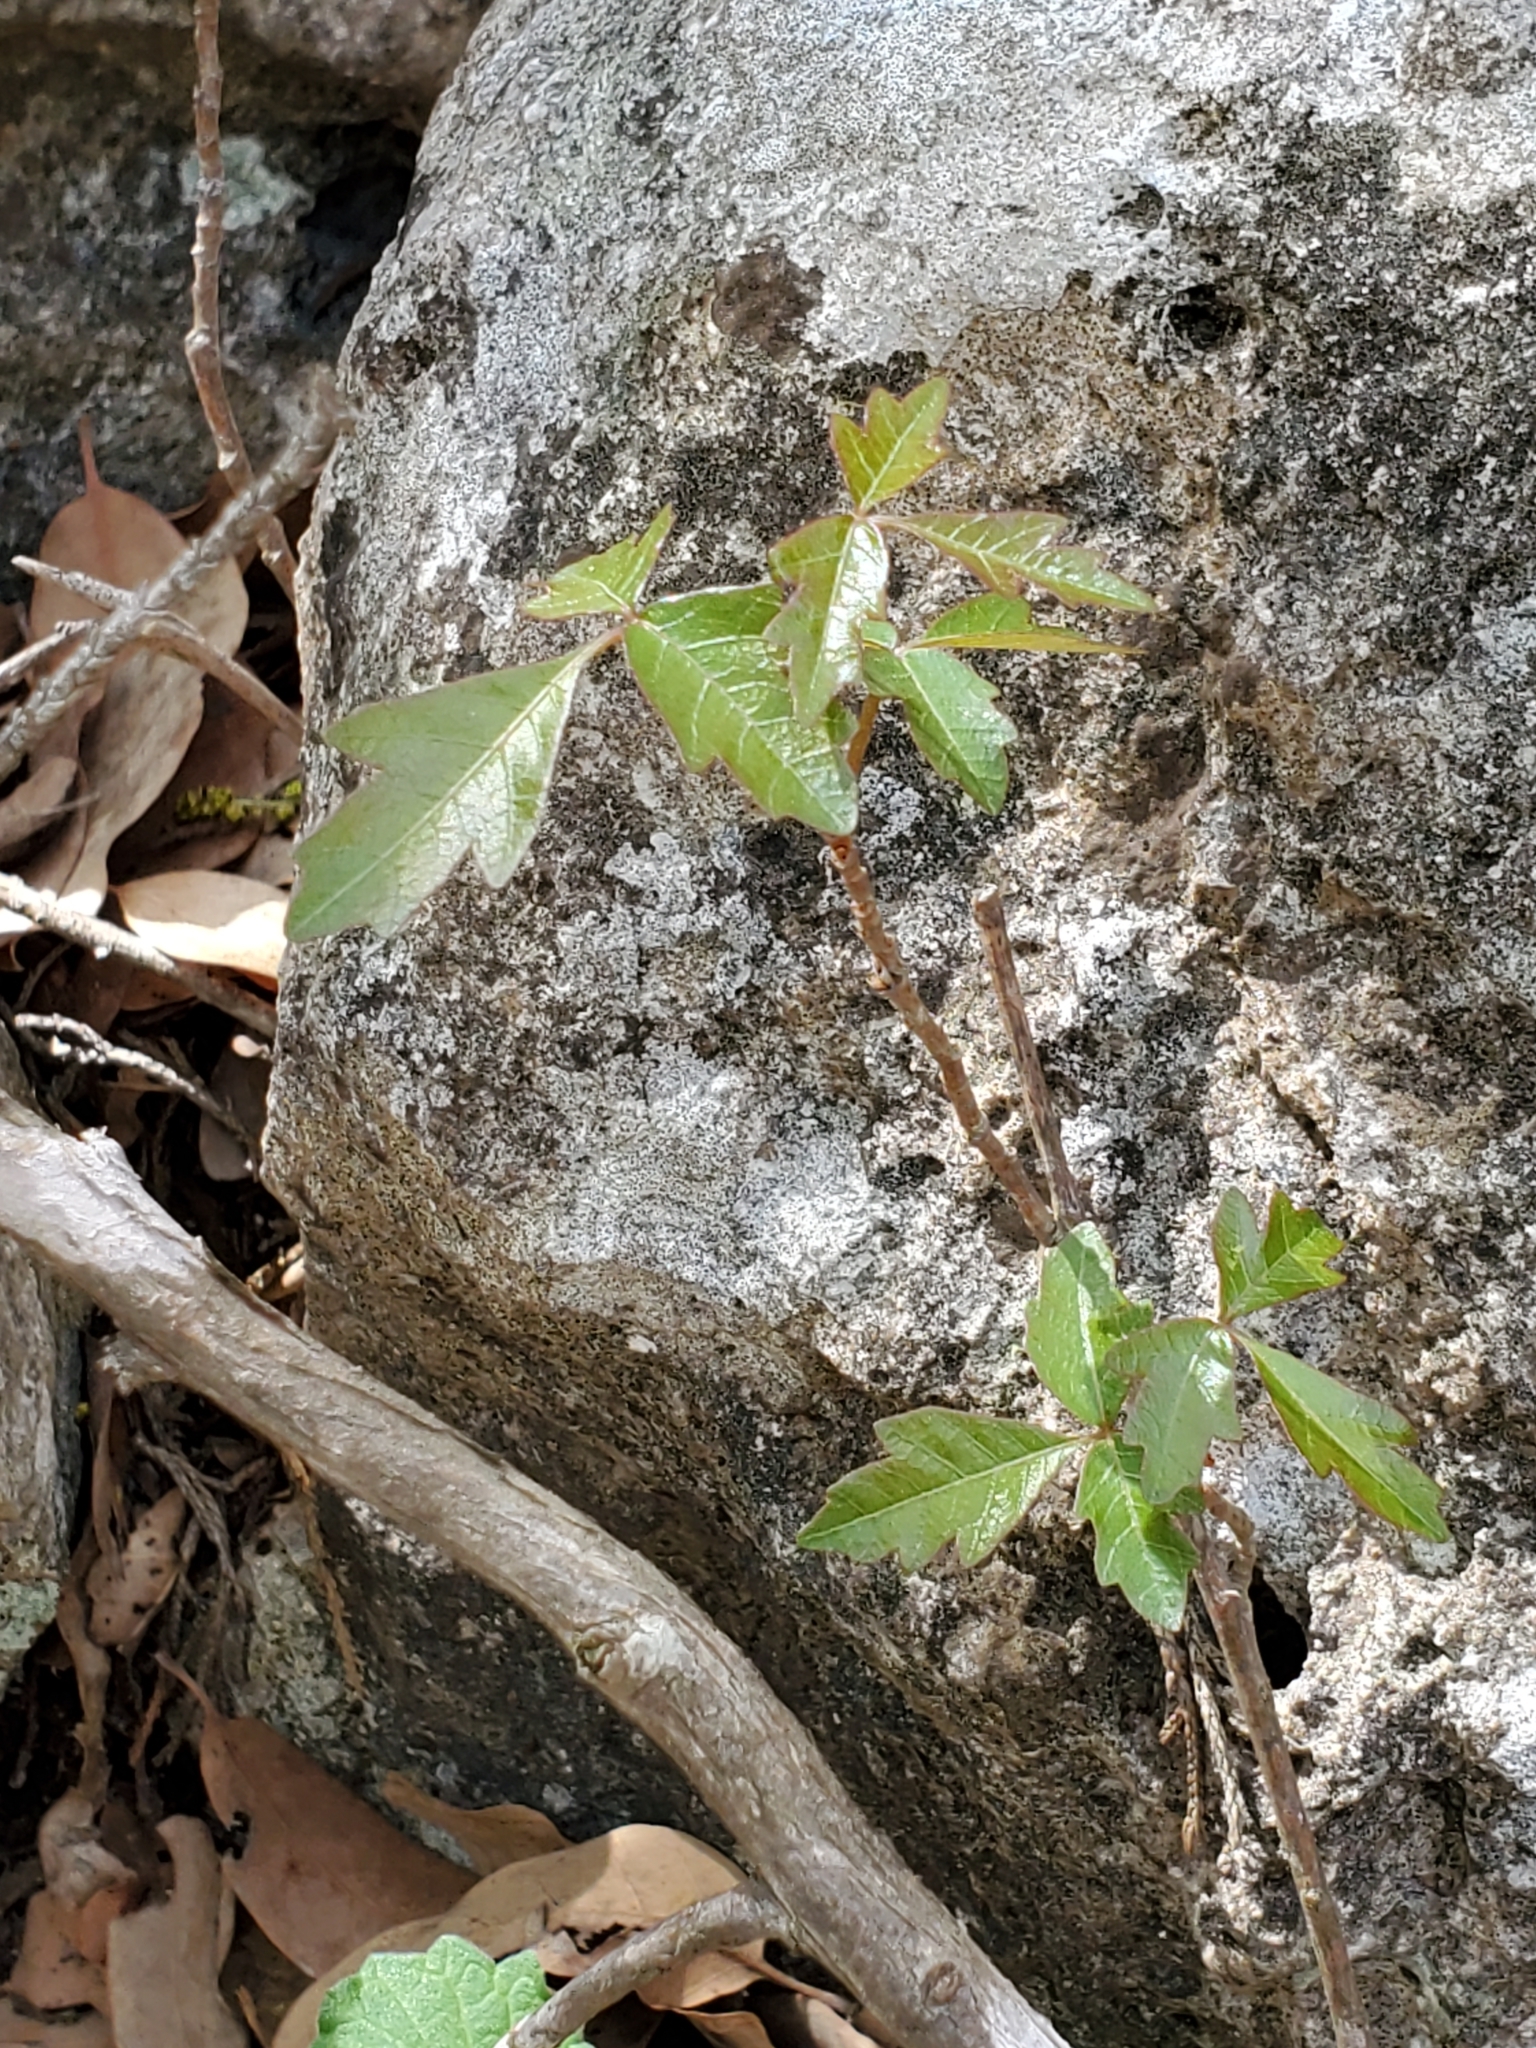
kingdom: Plantae
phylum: Tracheophyta
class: Magnoliopsida
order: Sapindales
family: Anacardiaceae
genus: Toxicodendron
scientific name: Toxicodendron radicans
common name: Poison ivy
